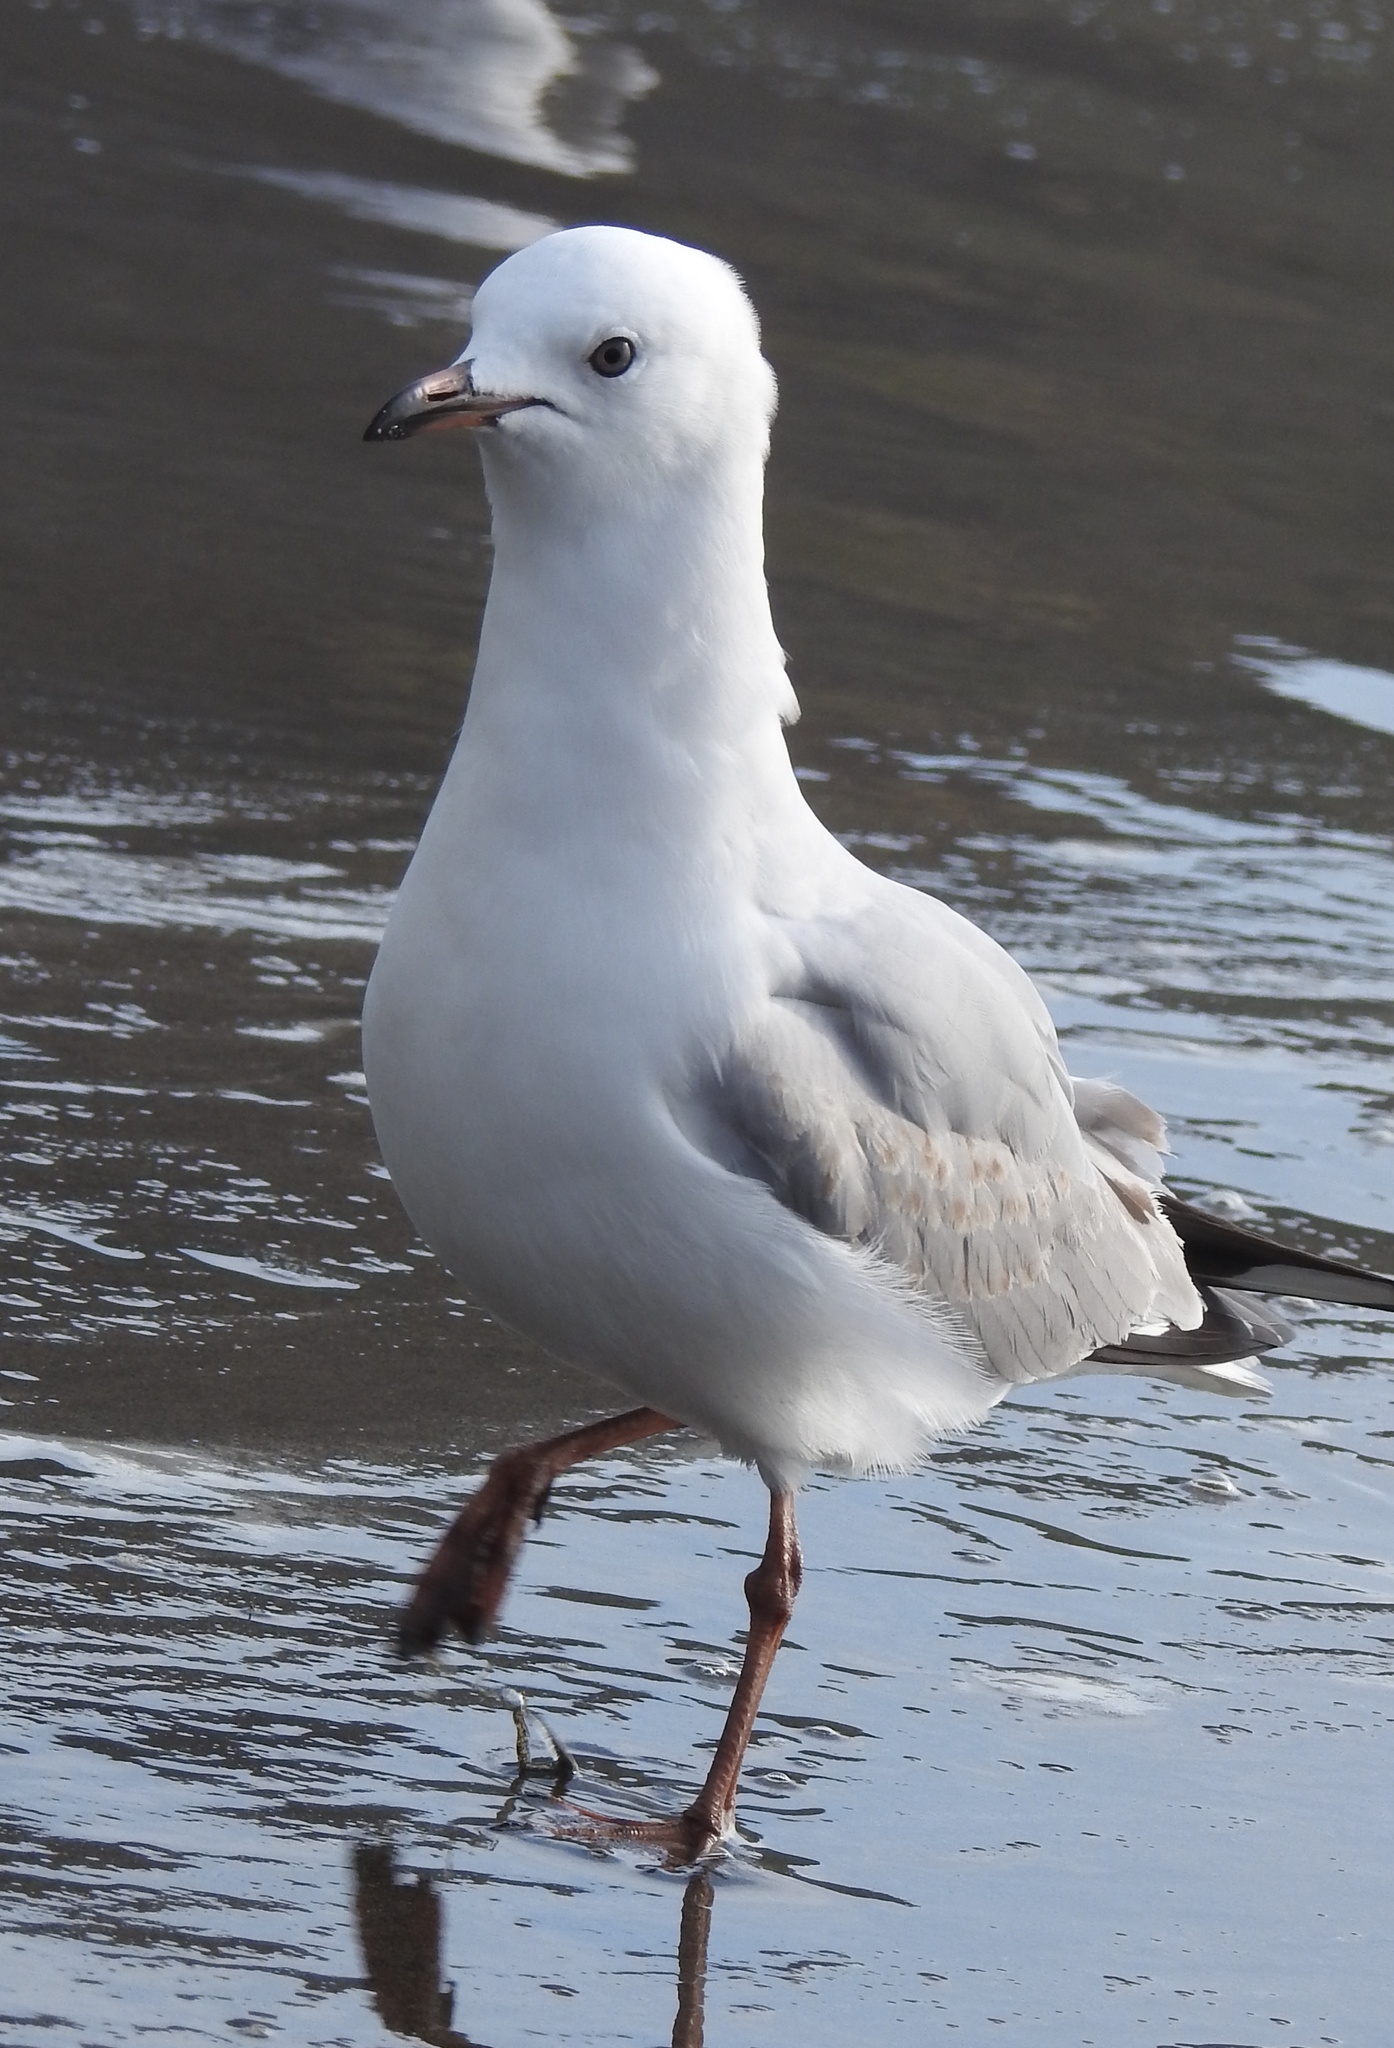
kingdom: Animalia
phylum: Chordata
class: Aves
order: Charadriiformes
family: Laridae
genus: Chroicocephalus
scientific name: Chroicocephalus novaehollandiae
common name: Silver gull
